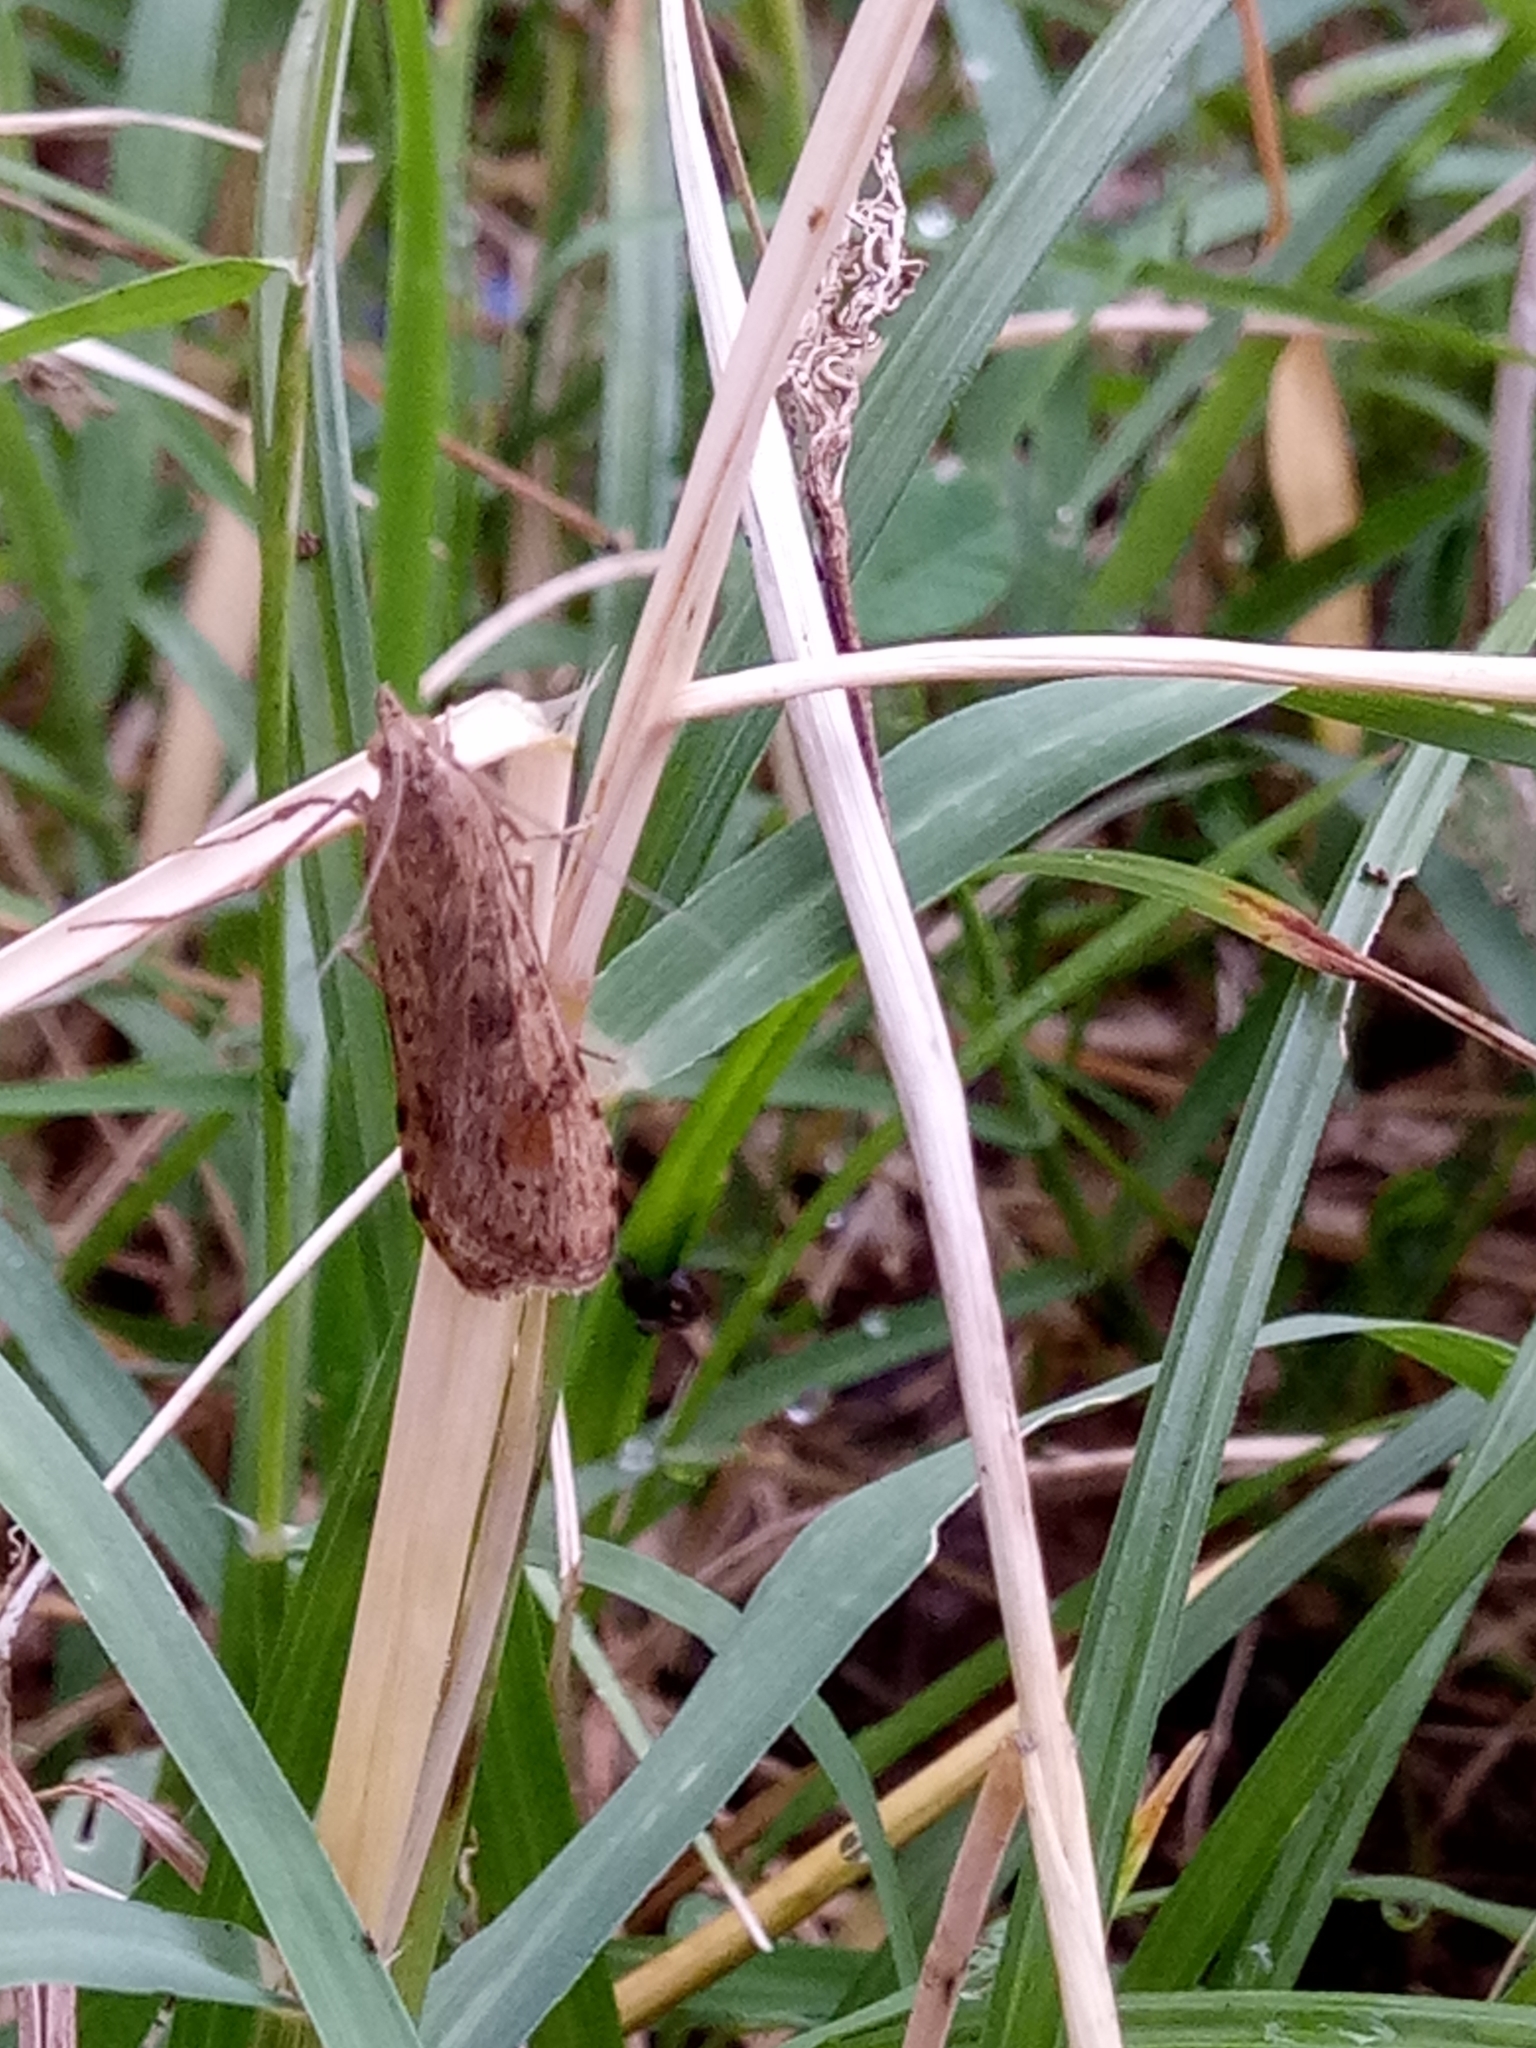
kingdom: Animalia
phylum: Arthropoda
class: Insecta
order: Lepidoptera
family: Crambidae
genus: Nomophila
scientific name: Nomophila noctuella
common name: Rush veneer
